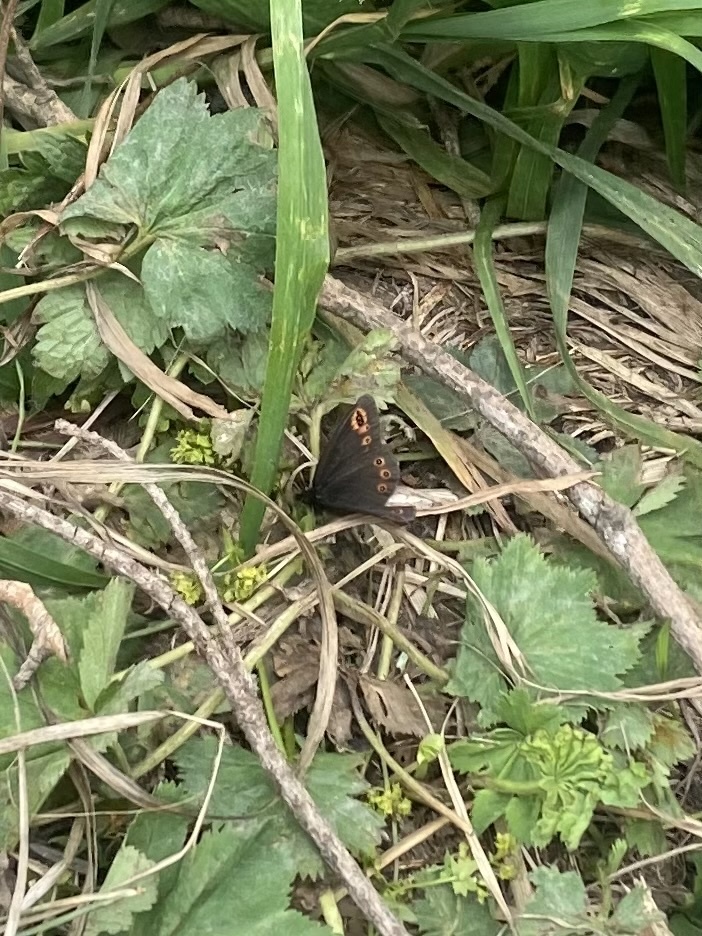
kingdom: Animalia
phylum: Arthropoda
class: Insecta
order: Lepidoptera
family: Nymphalidae
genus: Erebia
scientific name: Erebia medusa
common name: Woodland ringlet
